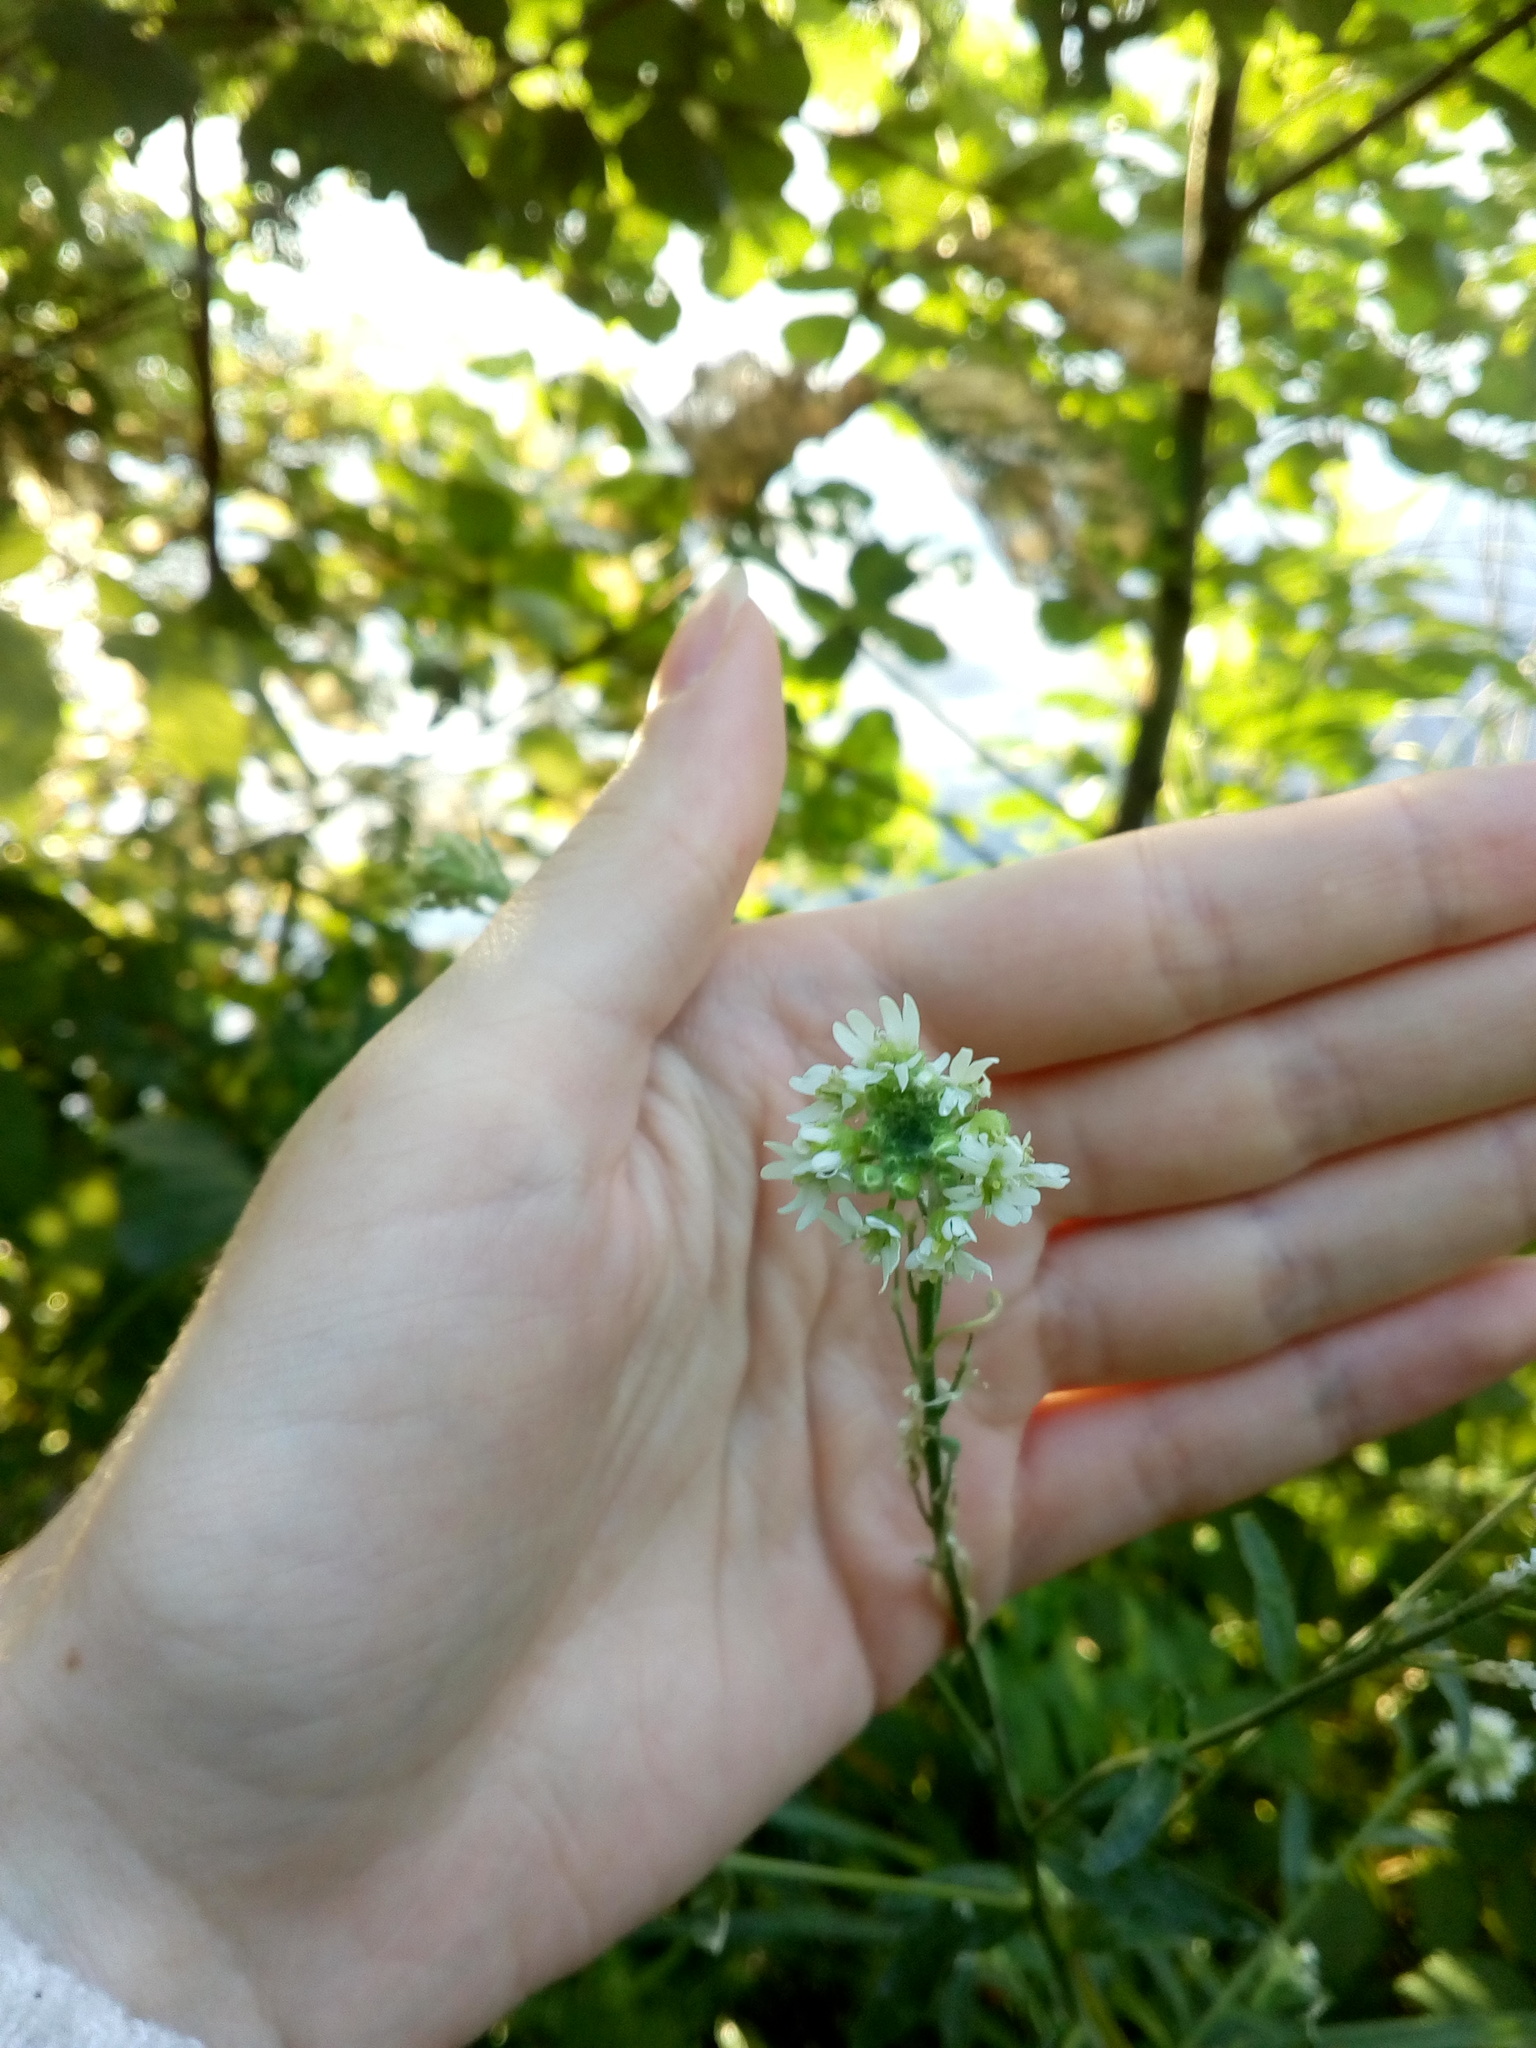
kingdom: Plantae
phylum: Tracheophyta
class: Magnoliopsida
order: Brassicales
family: Brassicaceae
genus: Berteroa
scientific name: Berteroa incana
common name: Hoary alison
